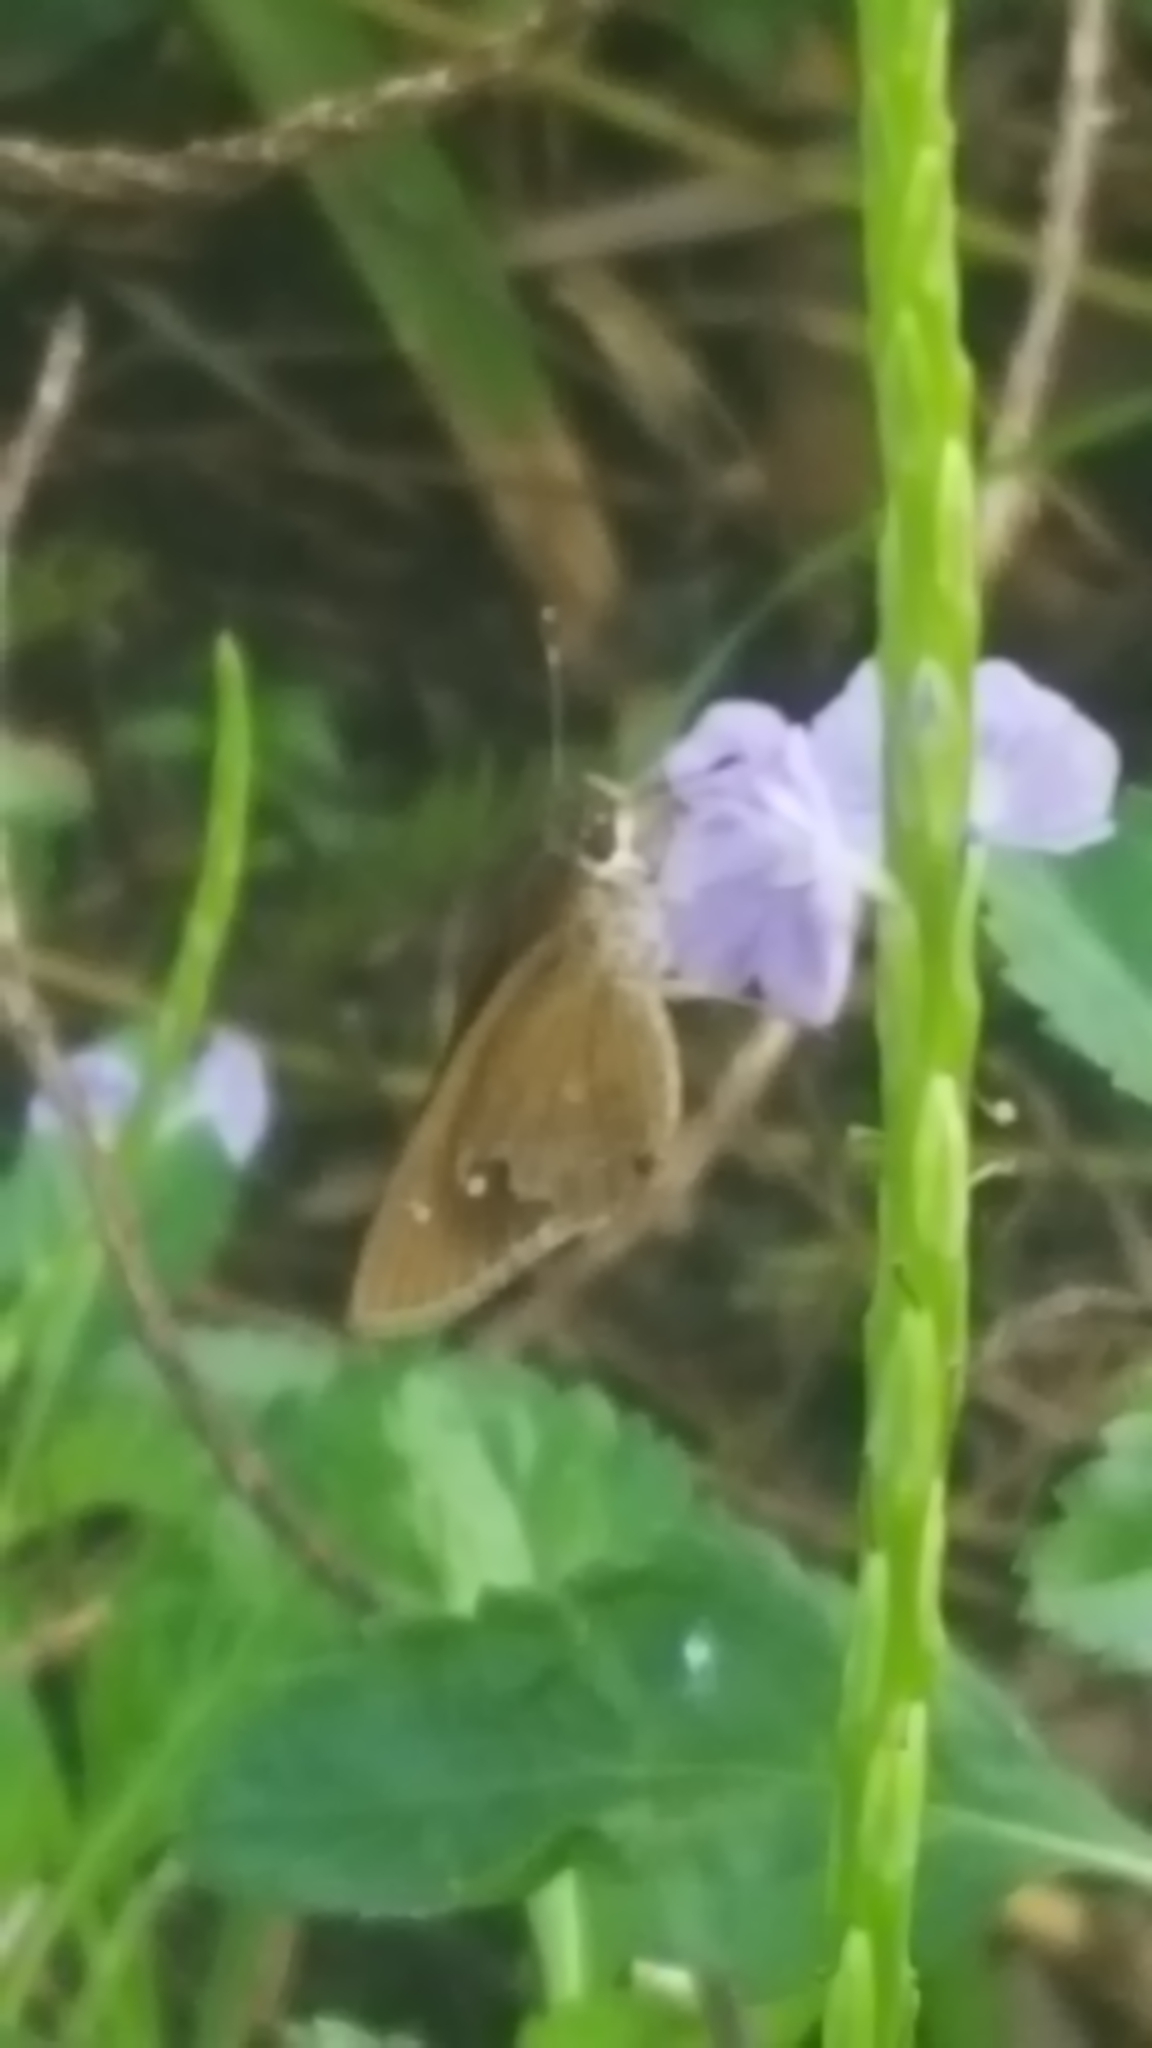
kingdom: Animalia
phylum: Arthropoda
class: Insecta
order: Lepidoptera
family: Hesperiidae
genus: Calpodes
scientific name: Calpodes ethlius
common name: Brazilian skipper
